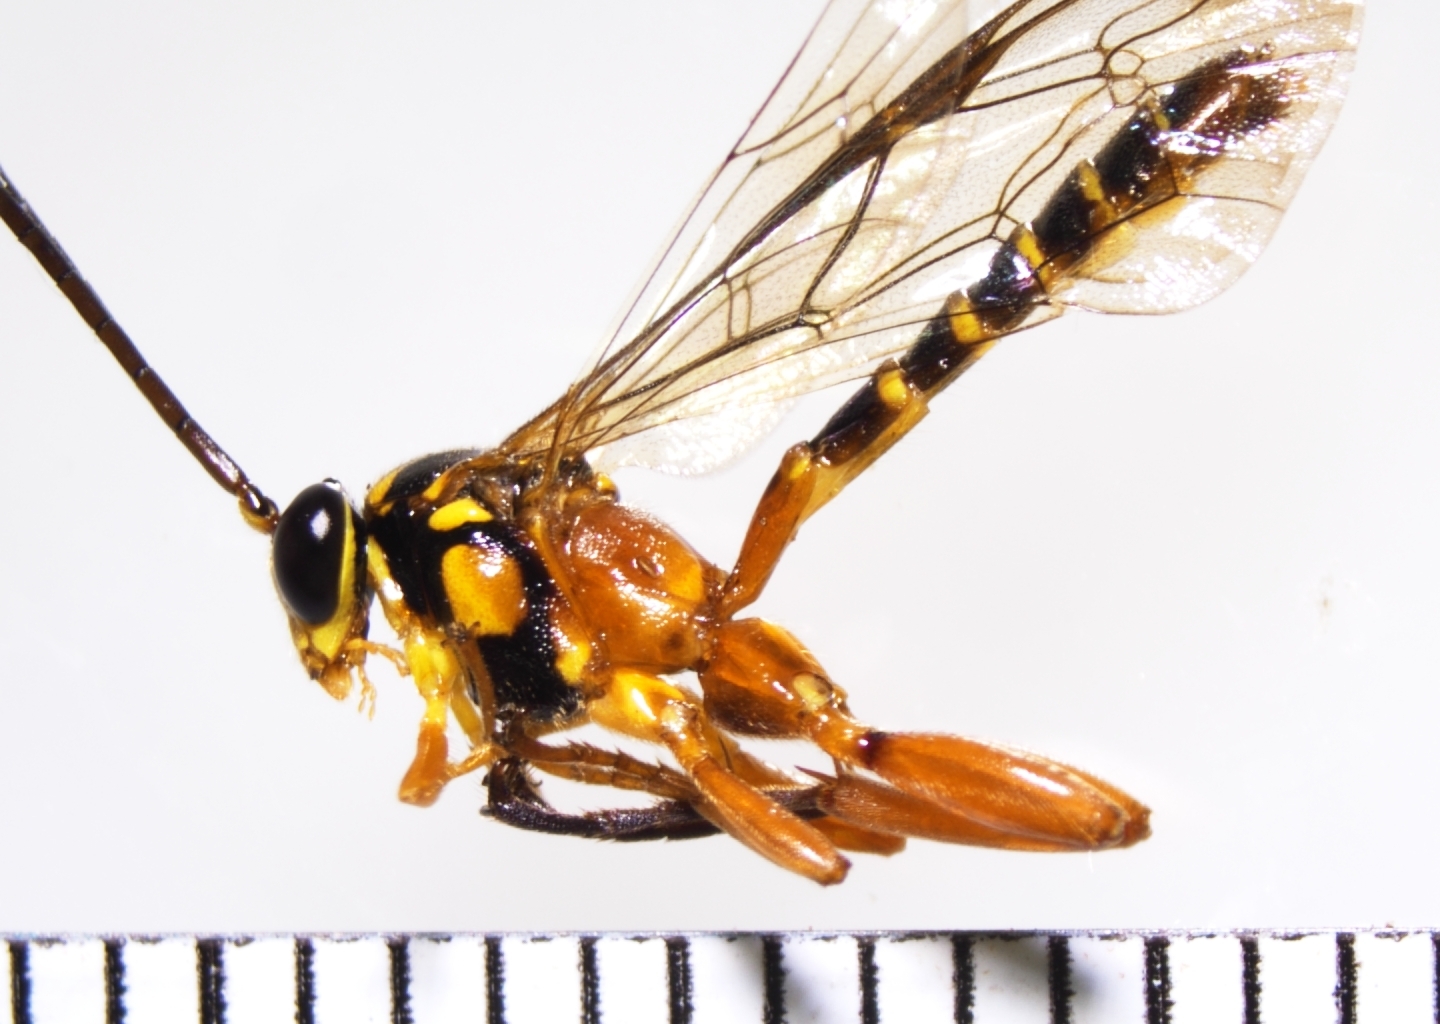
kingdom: Animalia
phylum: Arthropoda
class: Insecta
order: Hymenoptera
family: Ichneumonidae
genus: Echthromorpha
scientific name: Echthromorpha agrestoria
